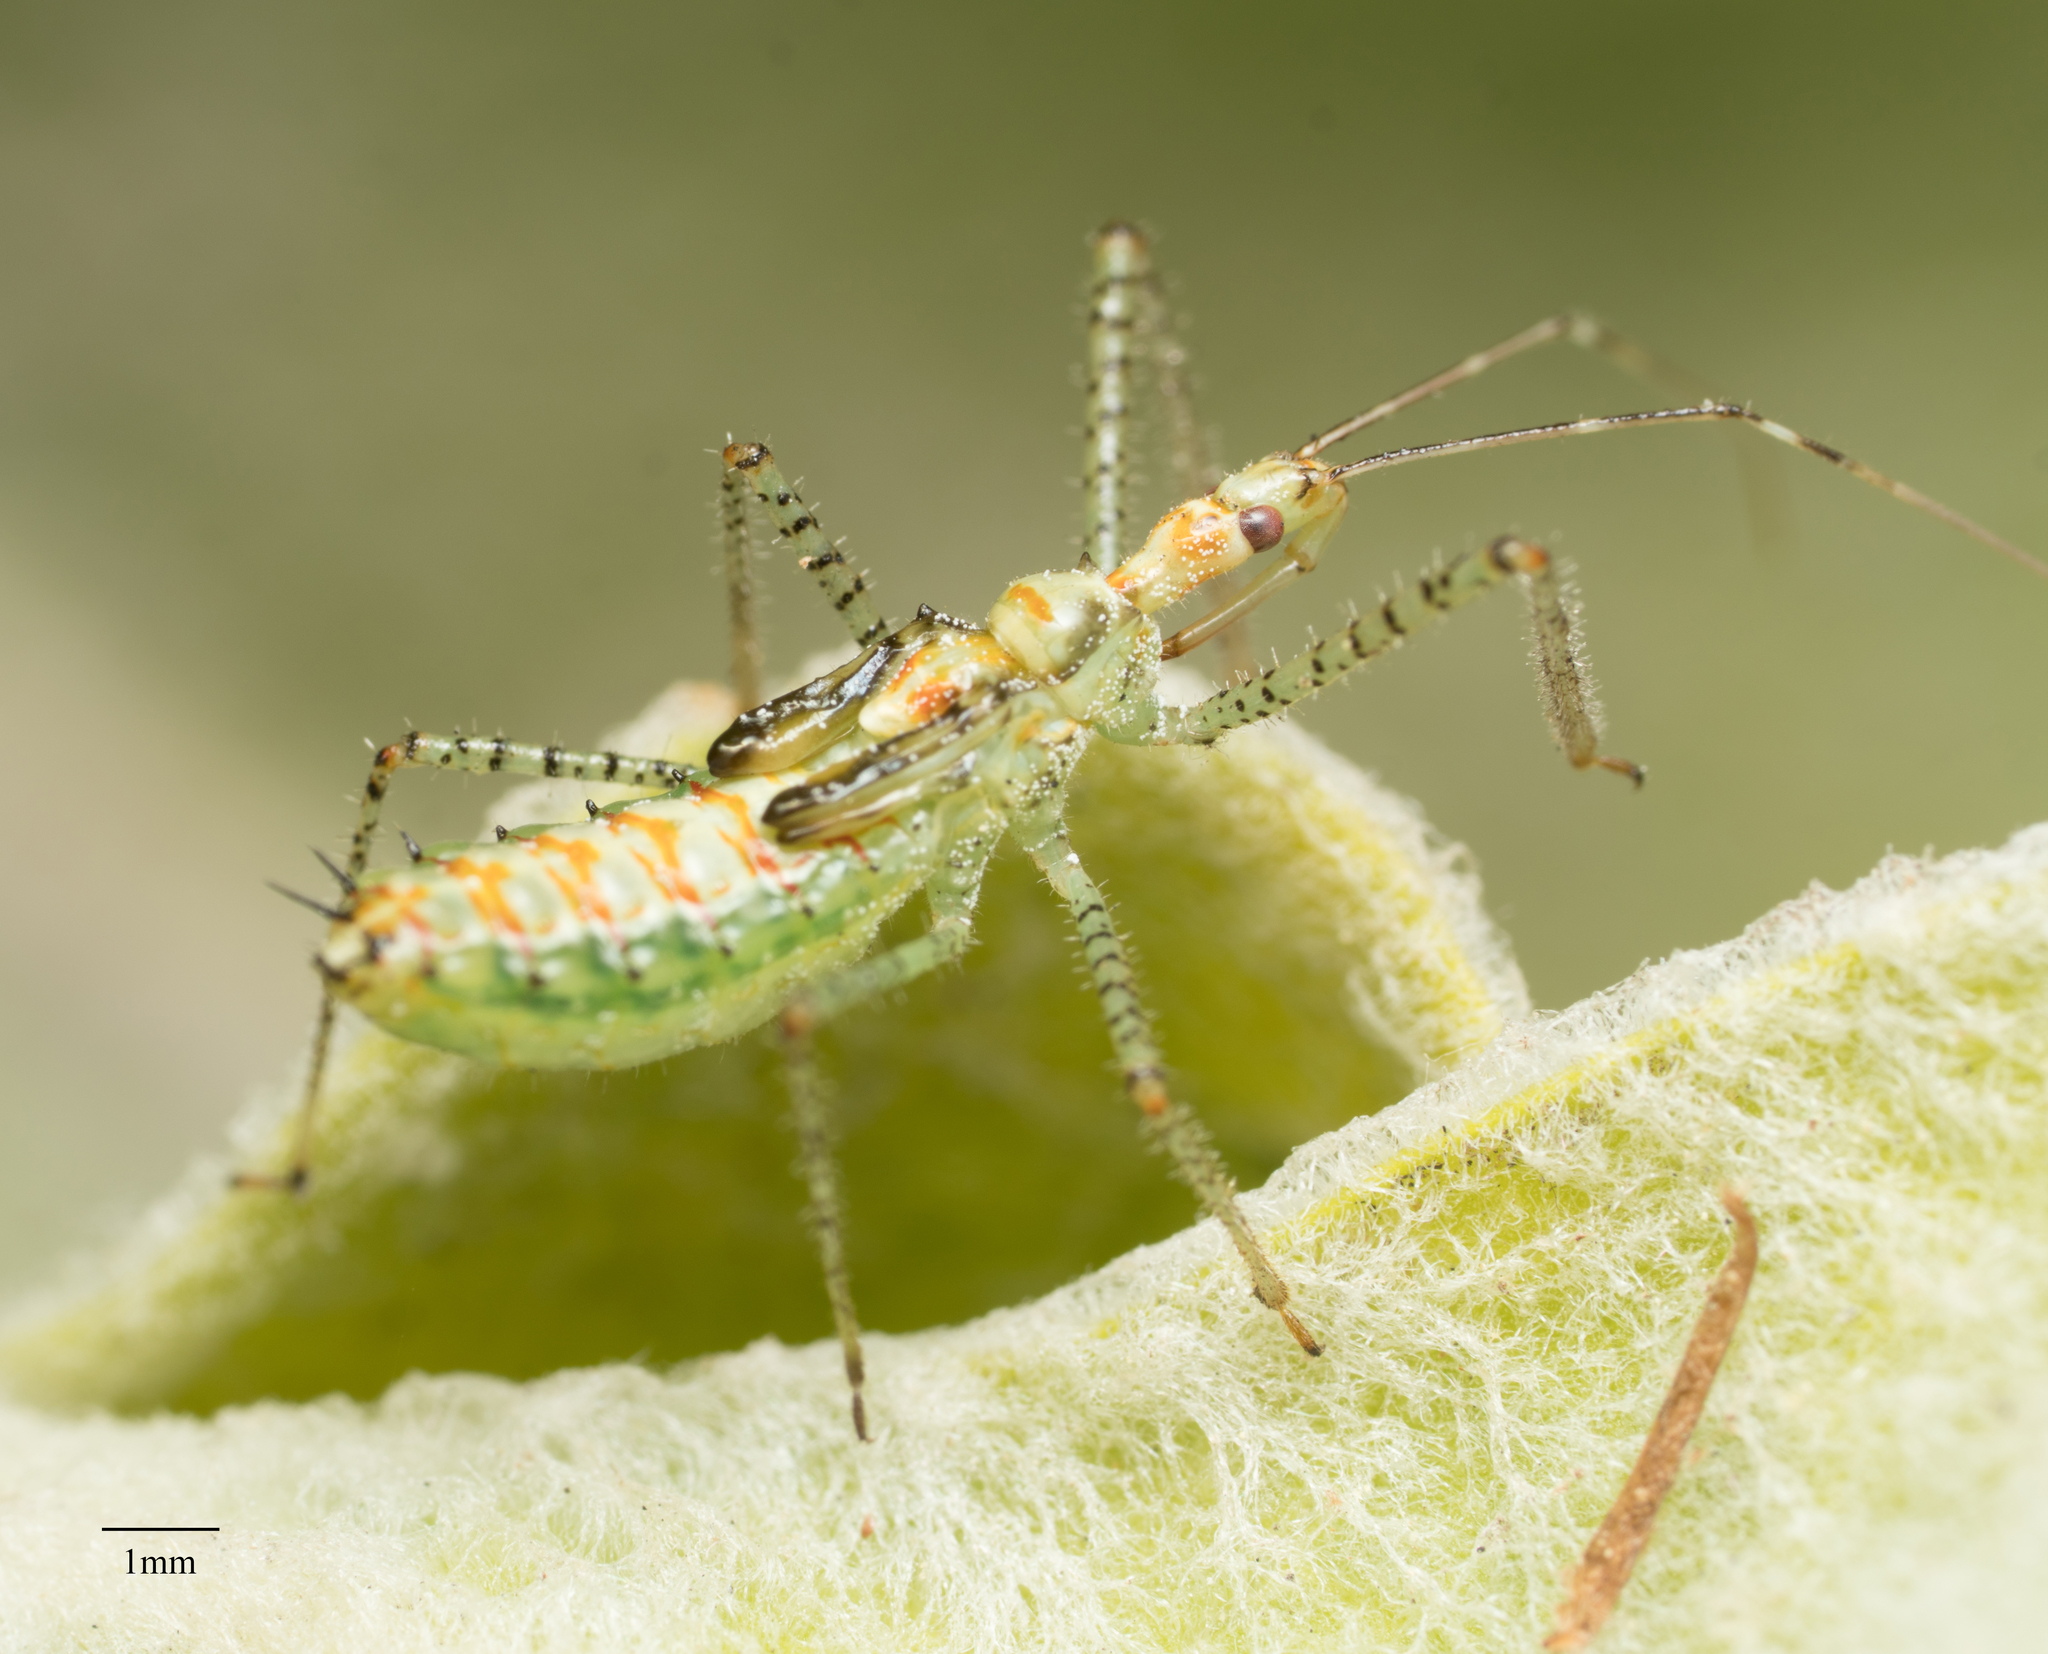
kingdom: Animalia
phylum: Arthropoda
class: Insecta
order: Hemiptera
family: Reduviidae
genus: Zelus
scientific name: Zelus renardii
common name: Assassin bug
